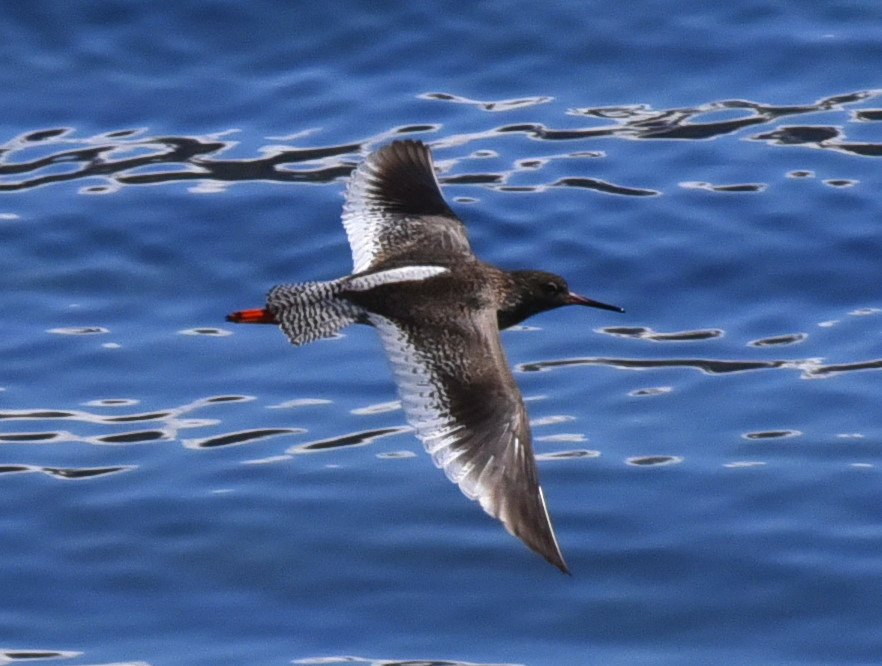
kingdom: Animalia
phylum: Chordata
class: Aves
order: Charadriiformes
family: Scolopacidae
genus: Tringa
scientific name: Tringa totanus
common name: Common redshank
